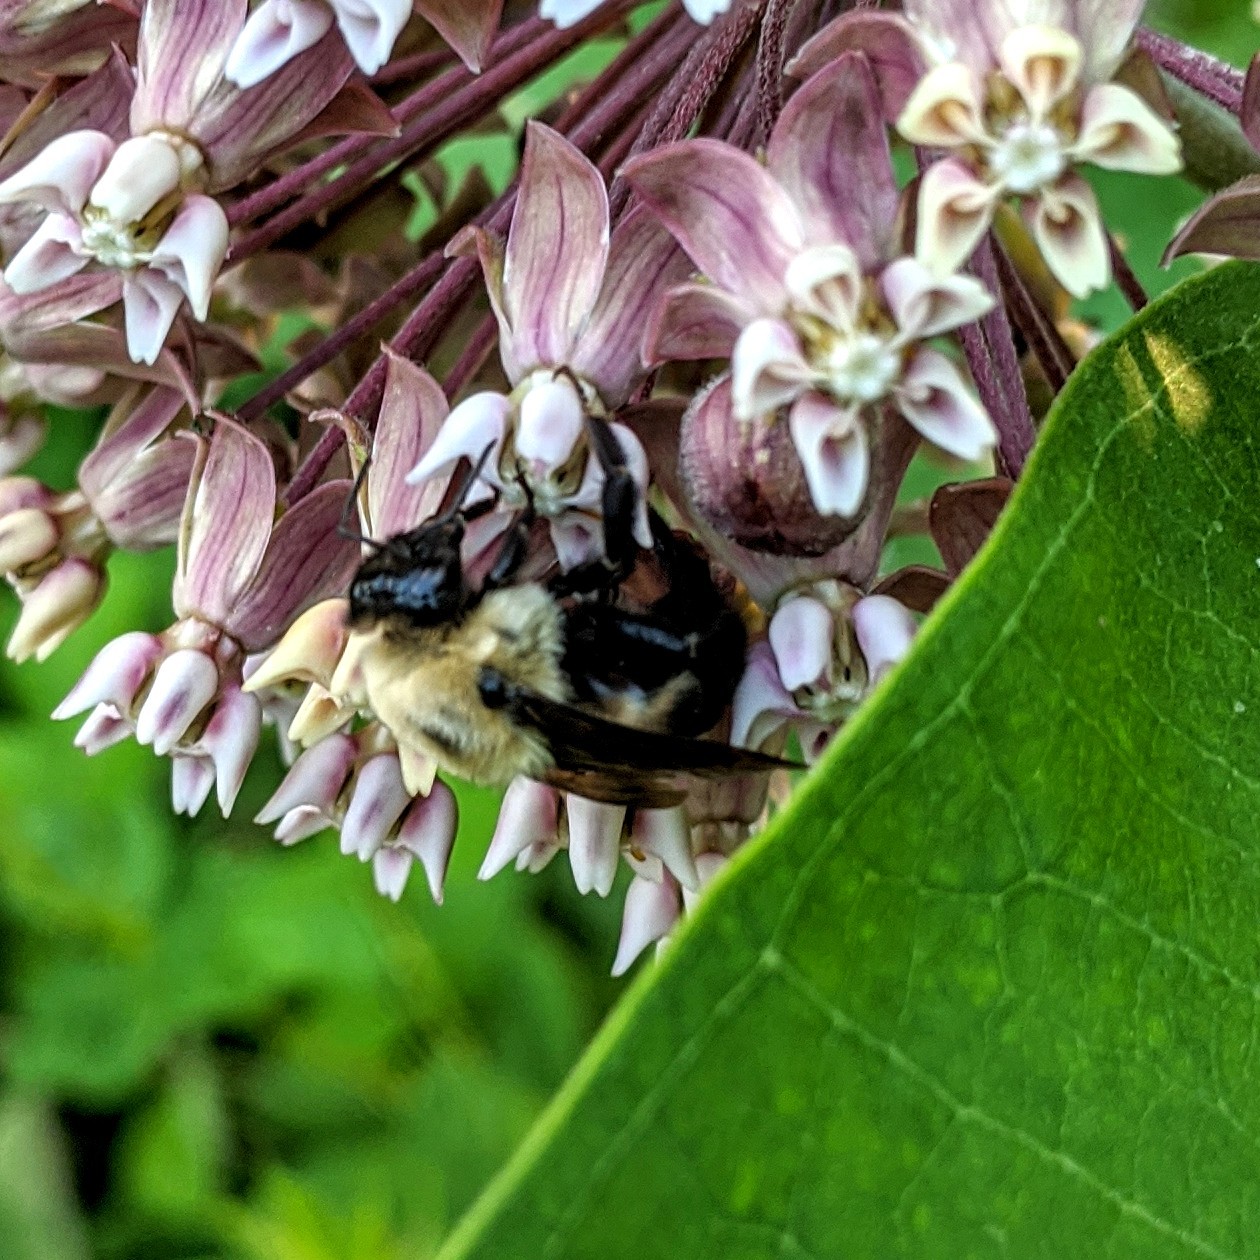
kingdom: Animalia
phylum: Arthropoda
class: Insecta
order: Hymenoptera
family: Apidae
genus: Bombus
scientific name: Bombus griseocollis
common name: Brown-belted bumble bee
